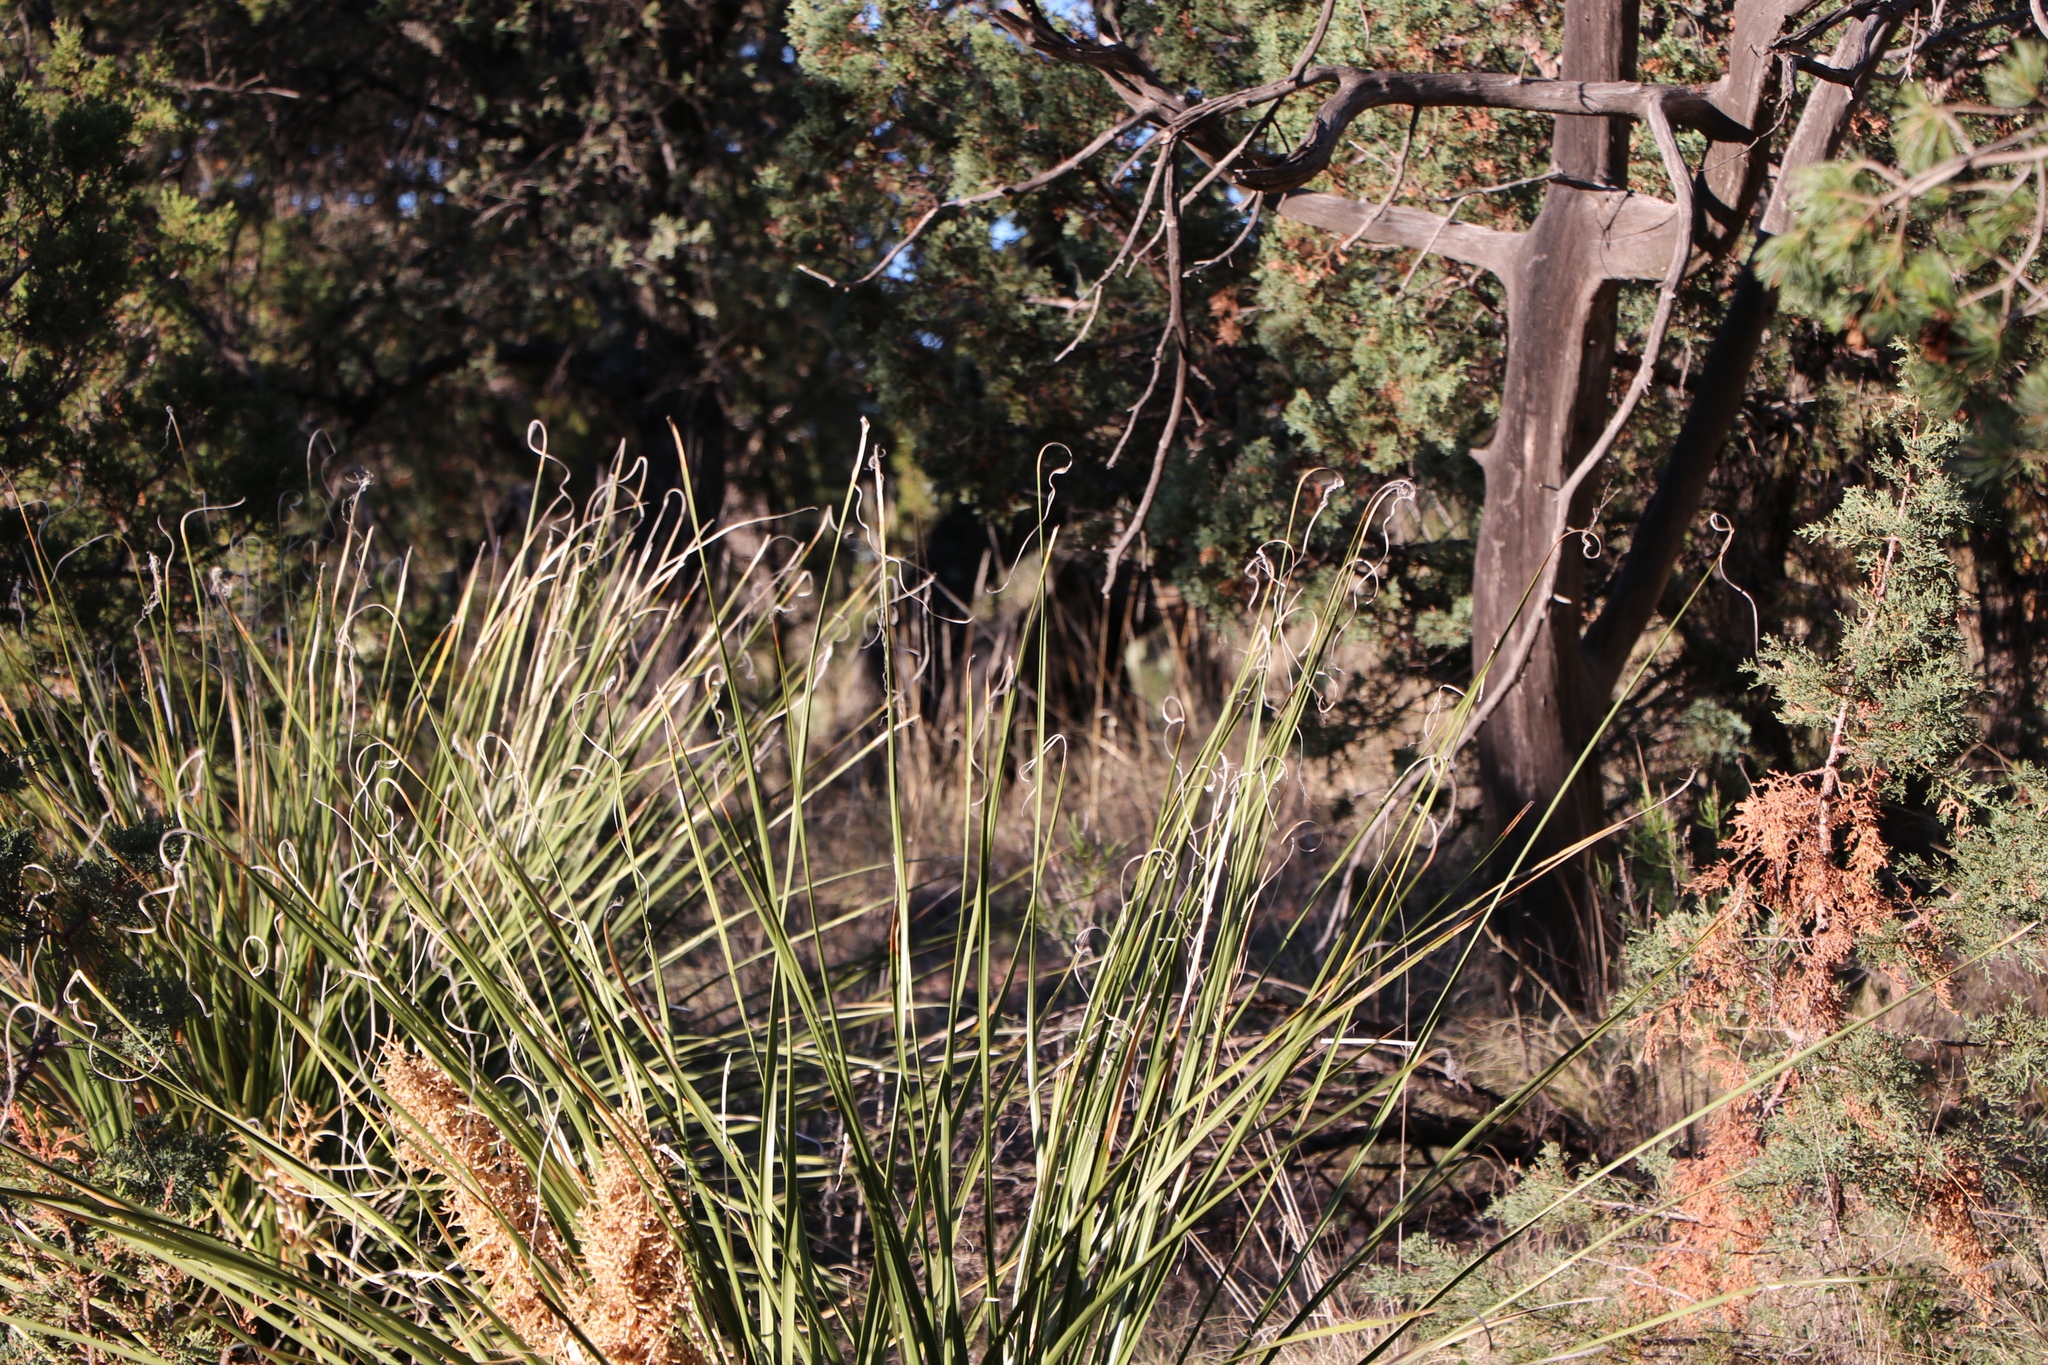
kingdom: Animalia
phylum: Chordata
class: Mammalia
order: Carnivora
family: Ursidae
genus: Ursus
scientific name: Ursus americanus
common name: American black bear
